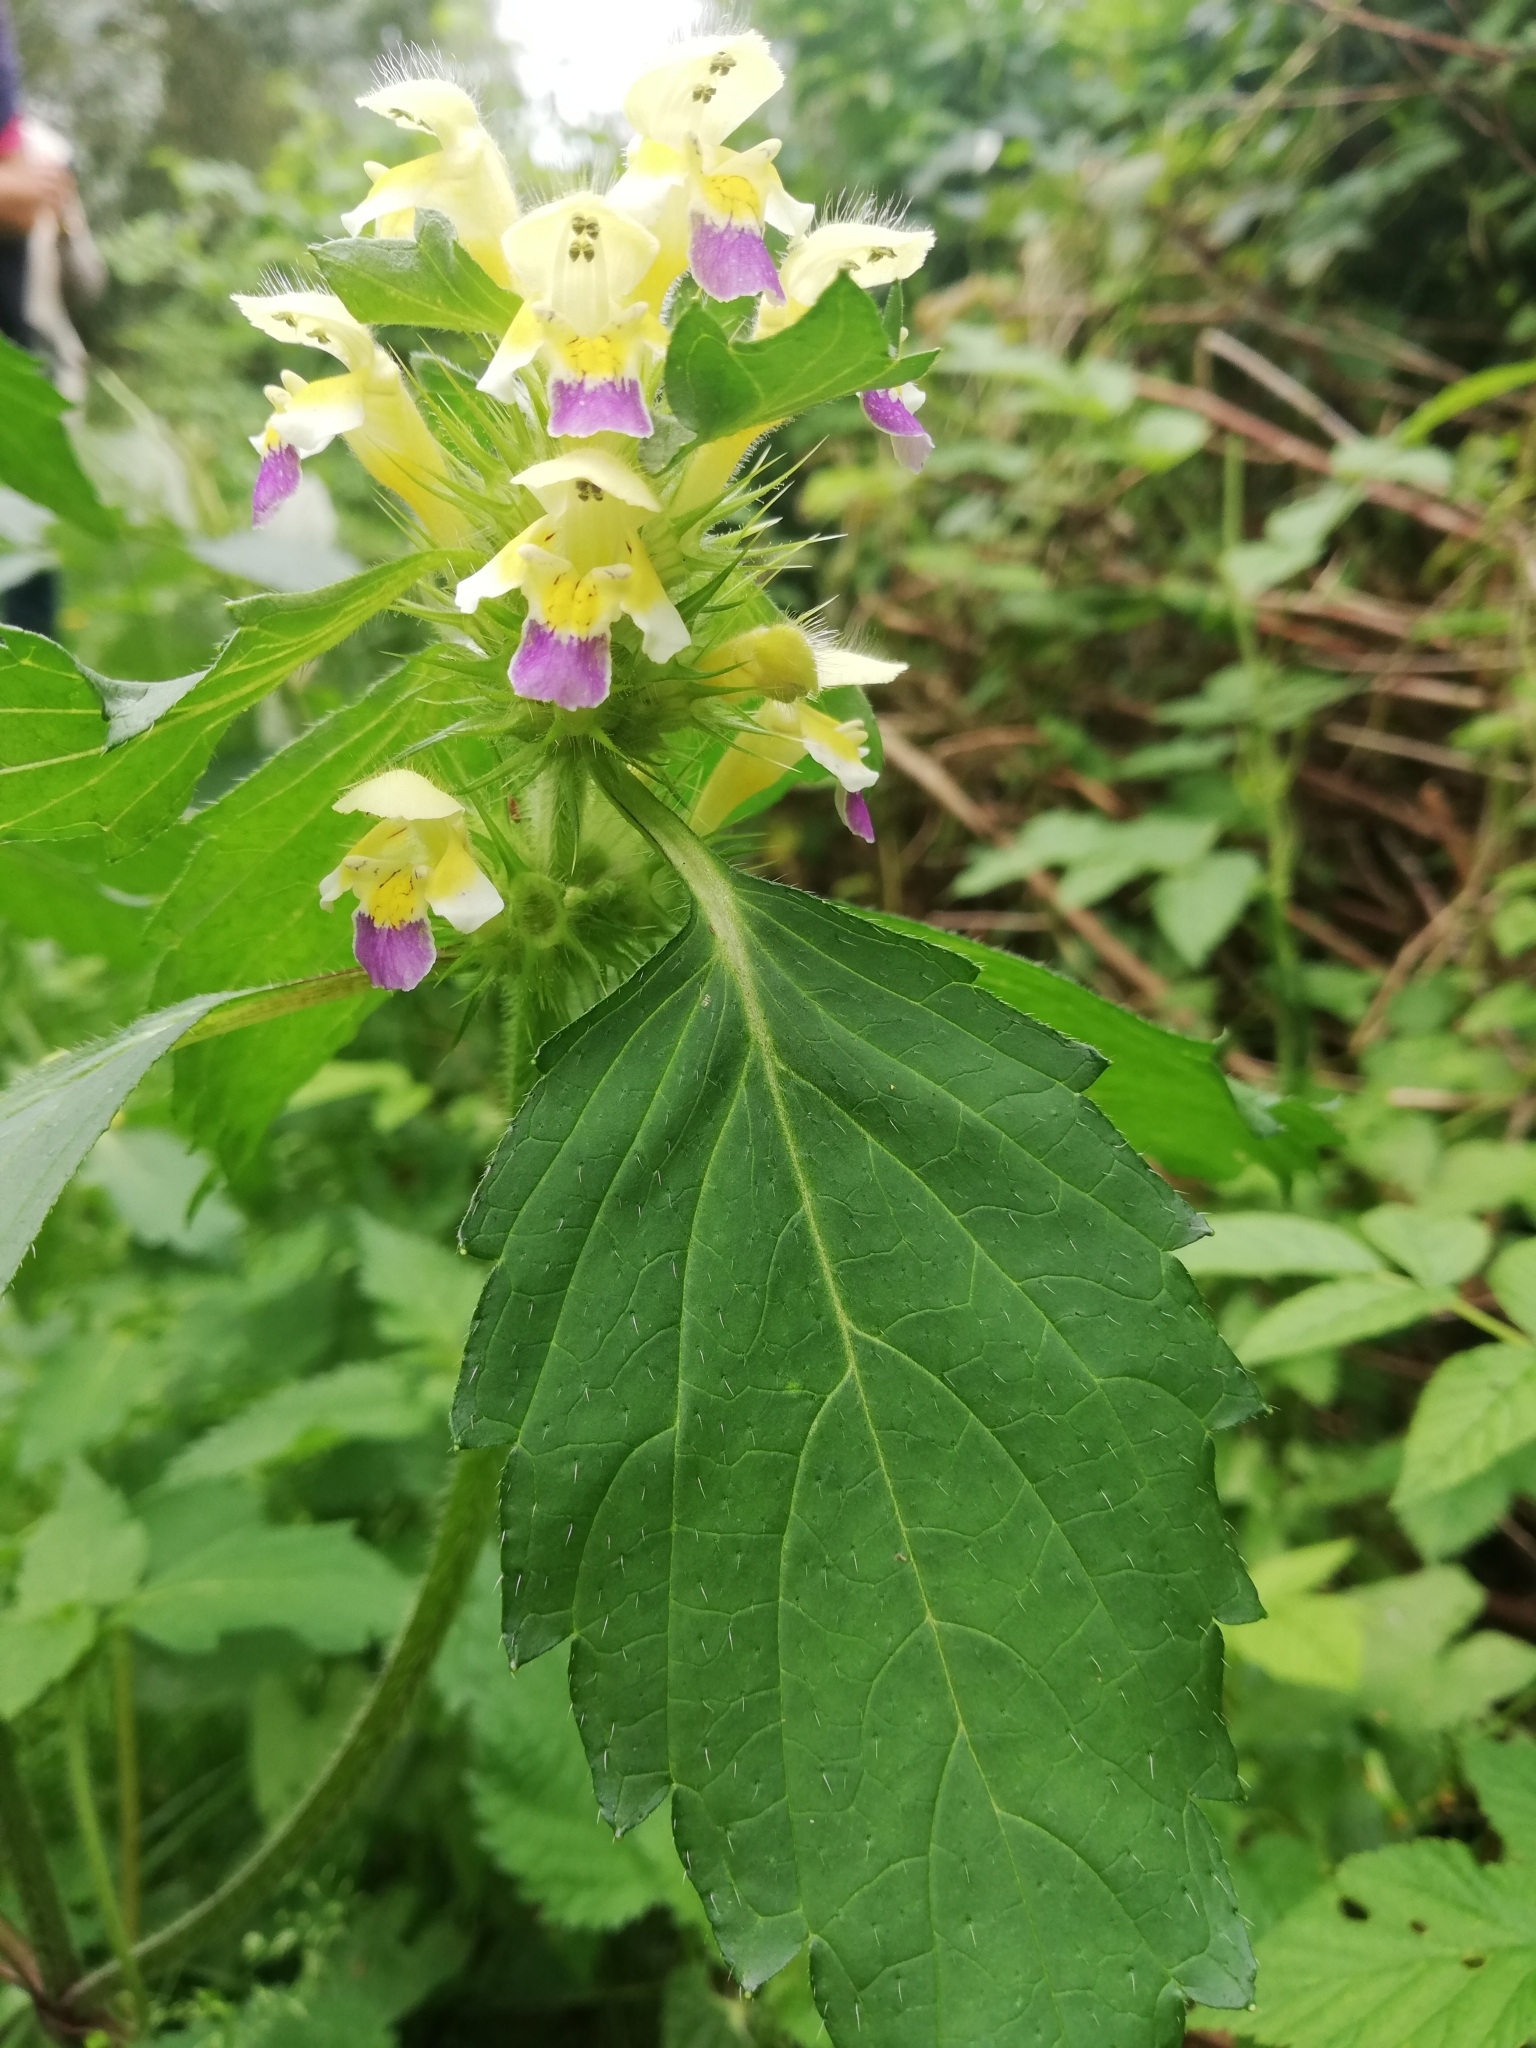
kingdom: Plantae
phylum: Tracheophyta
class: Magnoliopsida
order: Lamiales
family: Lamiaceae
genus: Galeopsis
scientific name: Galeopsis speciosa
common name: Large-flowered hemp-nettle
